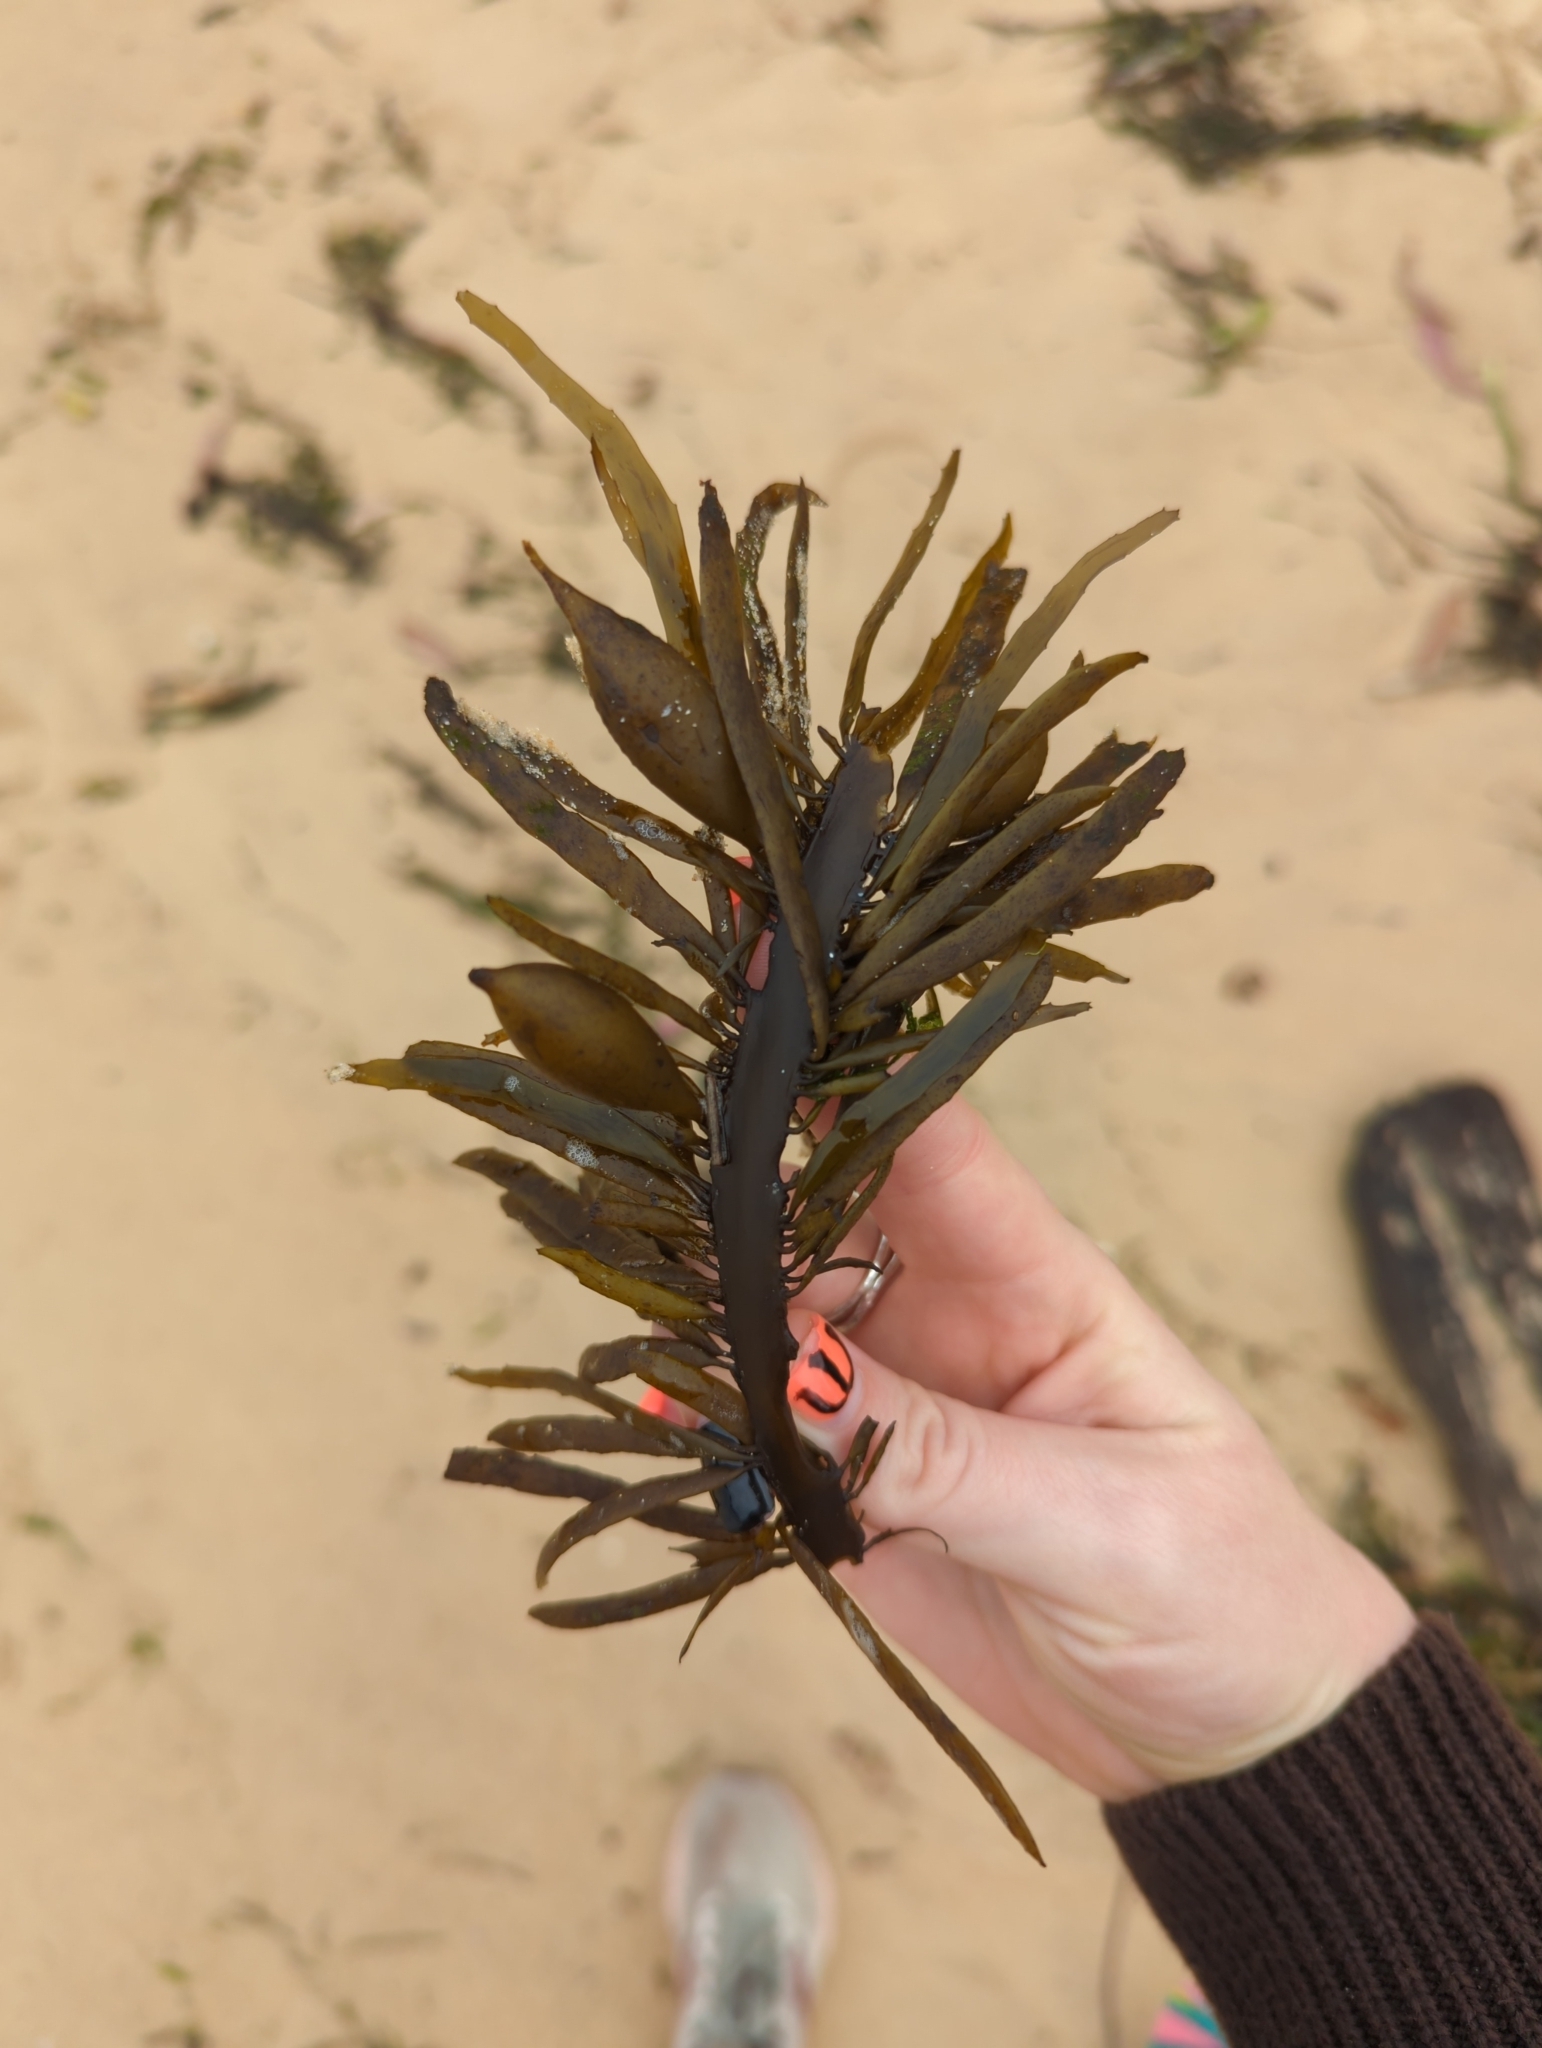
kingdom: Chromista
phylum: Ochrophyta
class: Phaeophyceae
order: Fucales
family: Seirococcaceae
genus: Phyllospora
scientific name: Phyllospora
